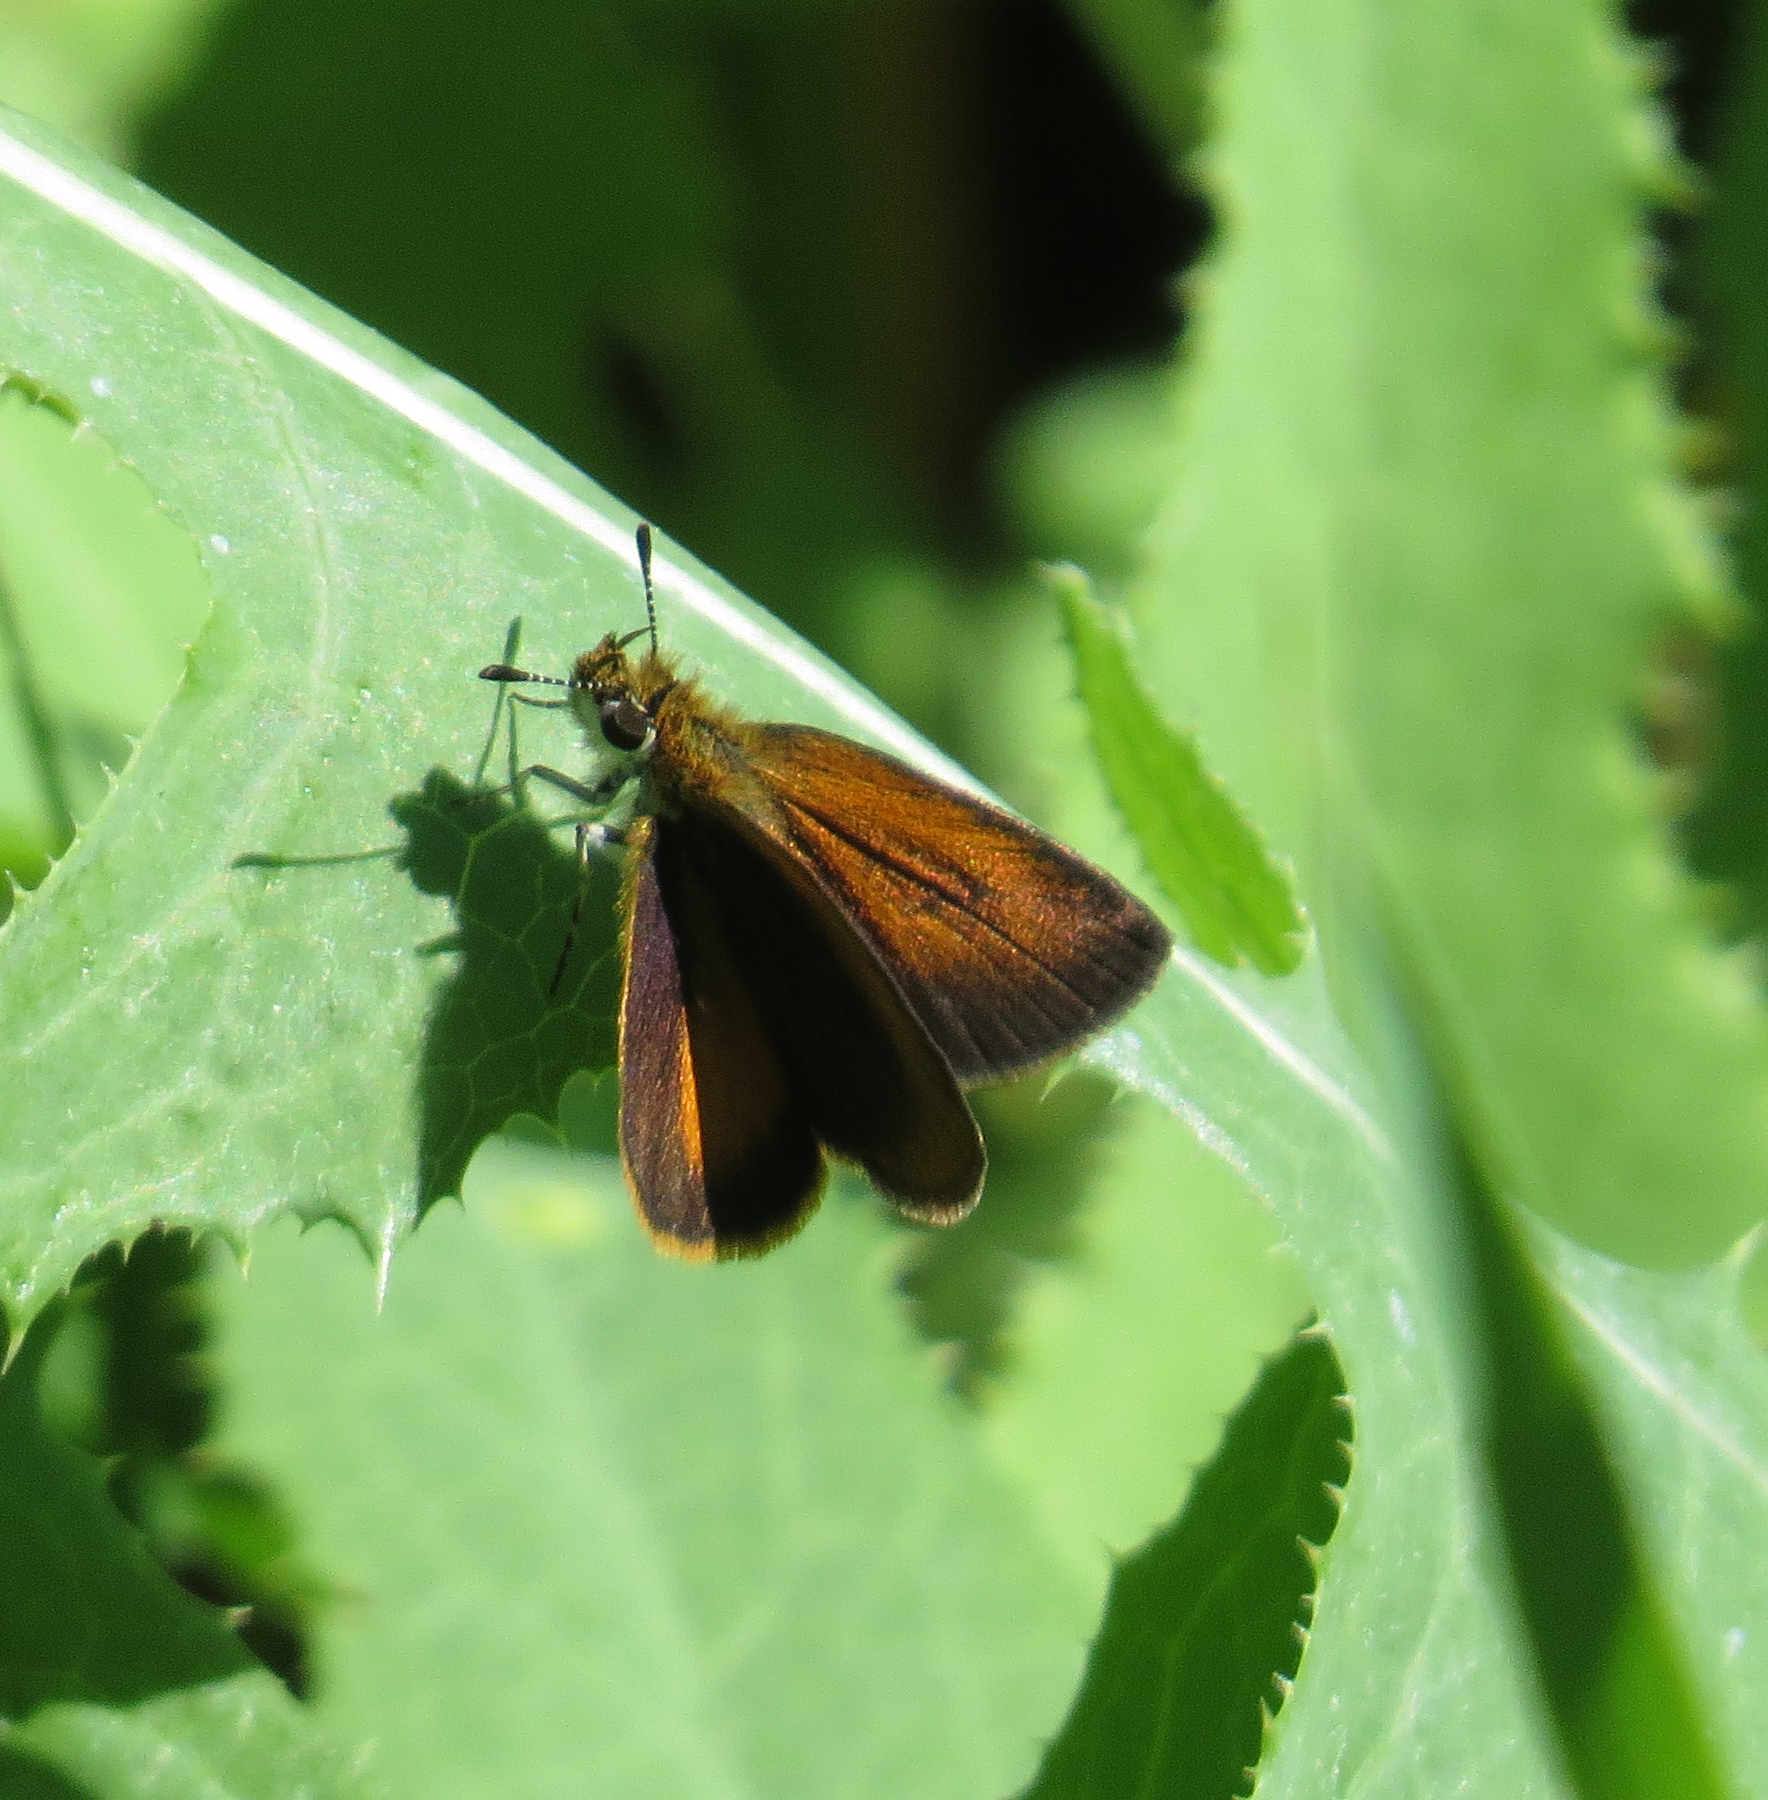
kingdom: Animalia
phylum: Arthropoda
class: Insecta
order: Lepidoptera
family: Hesperiidae
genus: Ancyloxypha
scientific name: Ancyloxypha numitor
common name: Least skipper
